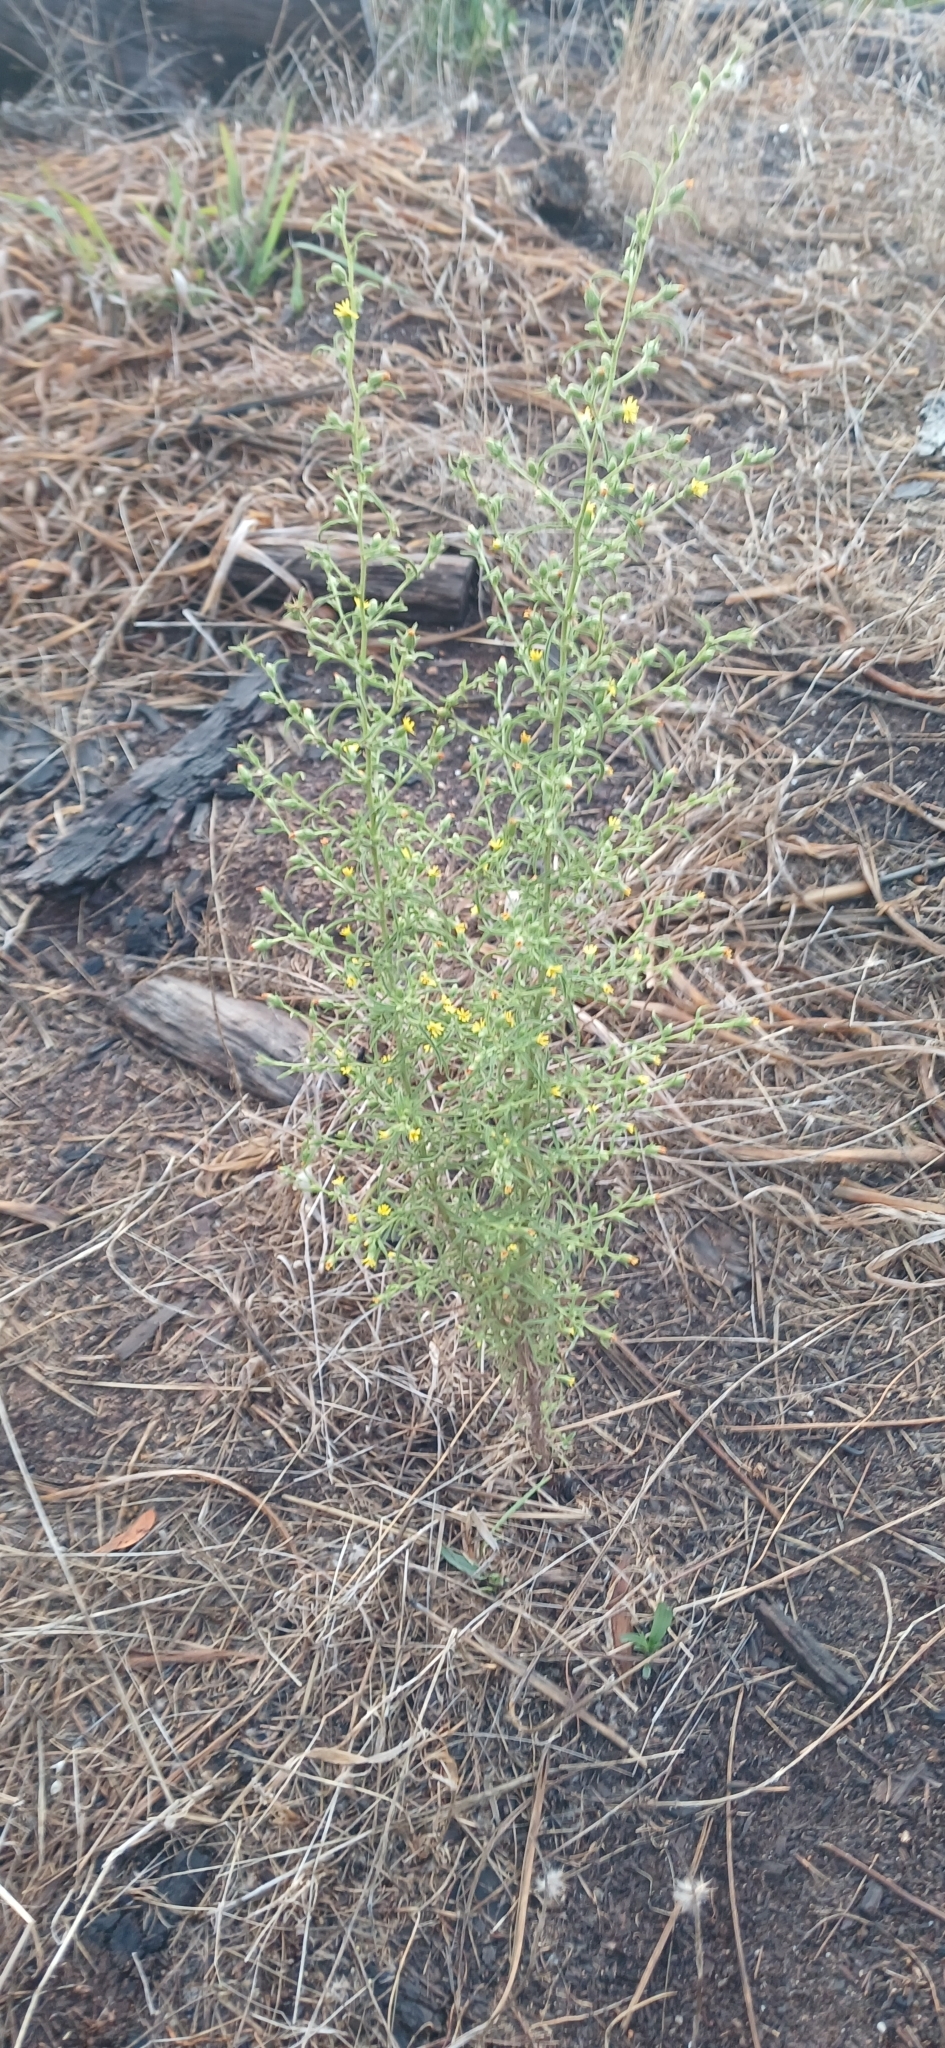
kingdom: Plantae
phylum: Tracheophyta
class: Magnoliopsida
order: Asterales
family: Asteraceae
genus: Dittrichia
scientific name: Dittrichia graveolens
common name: Stinking fleabane
